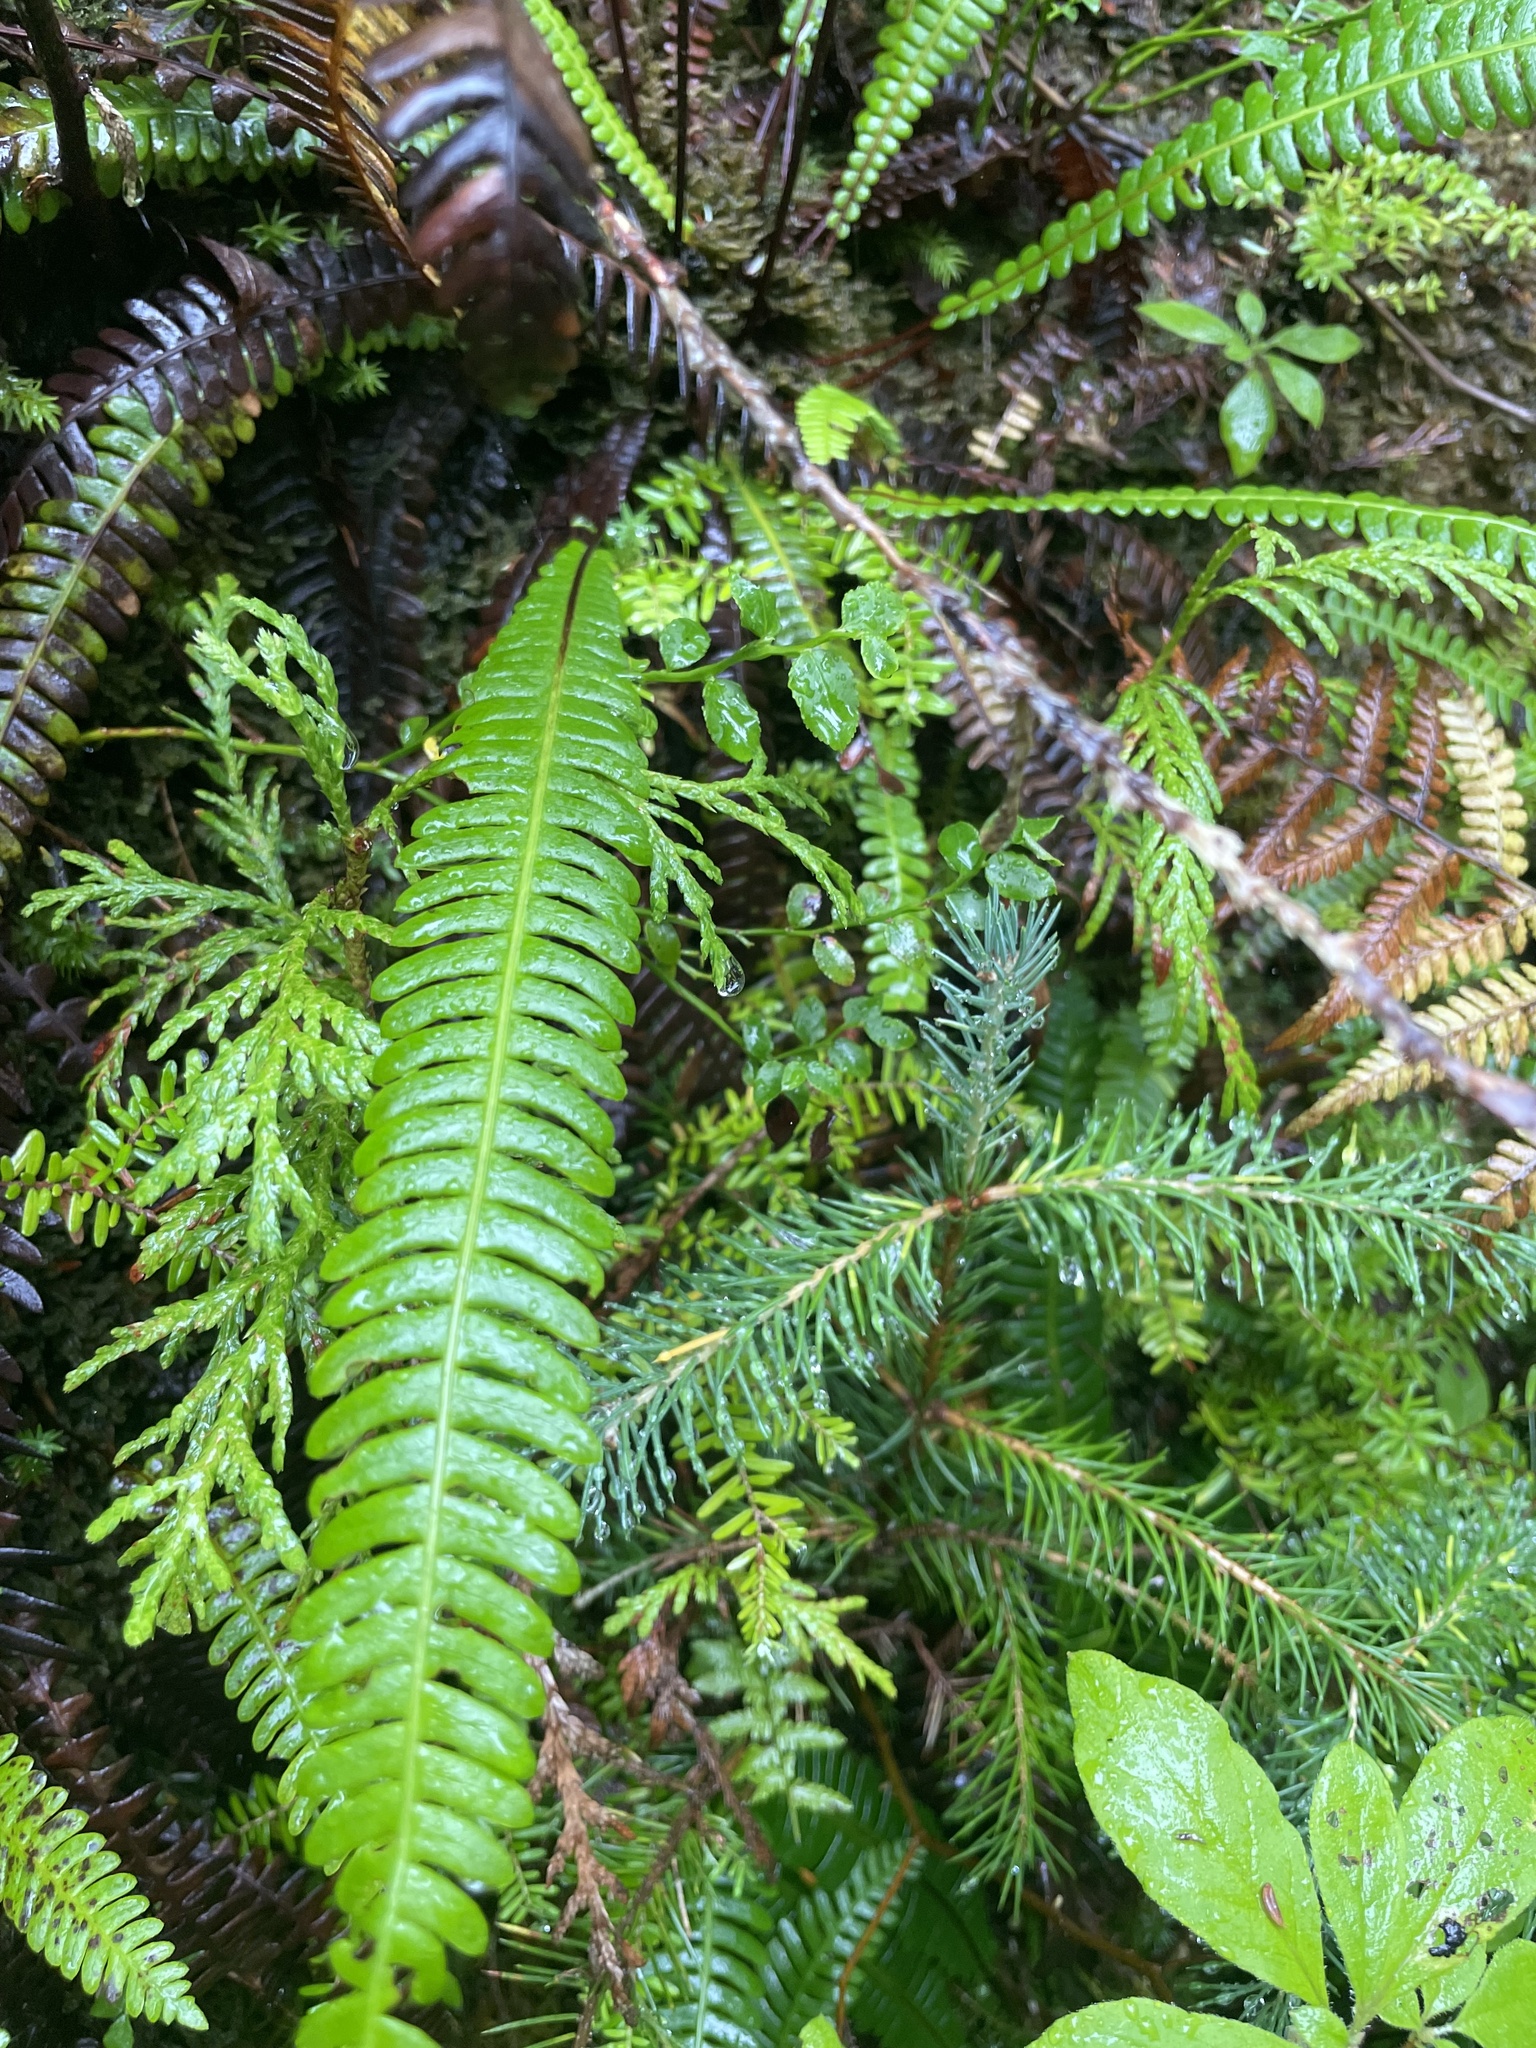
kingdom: Plantae
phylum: Tracheophyta
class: Polypodiopsida
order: Polypodiales
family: Blechnaceae
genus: Struthiopteris
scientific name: Struthiopteris spicant
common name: Deer fern
